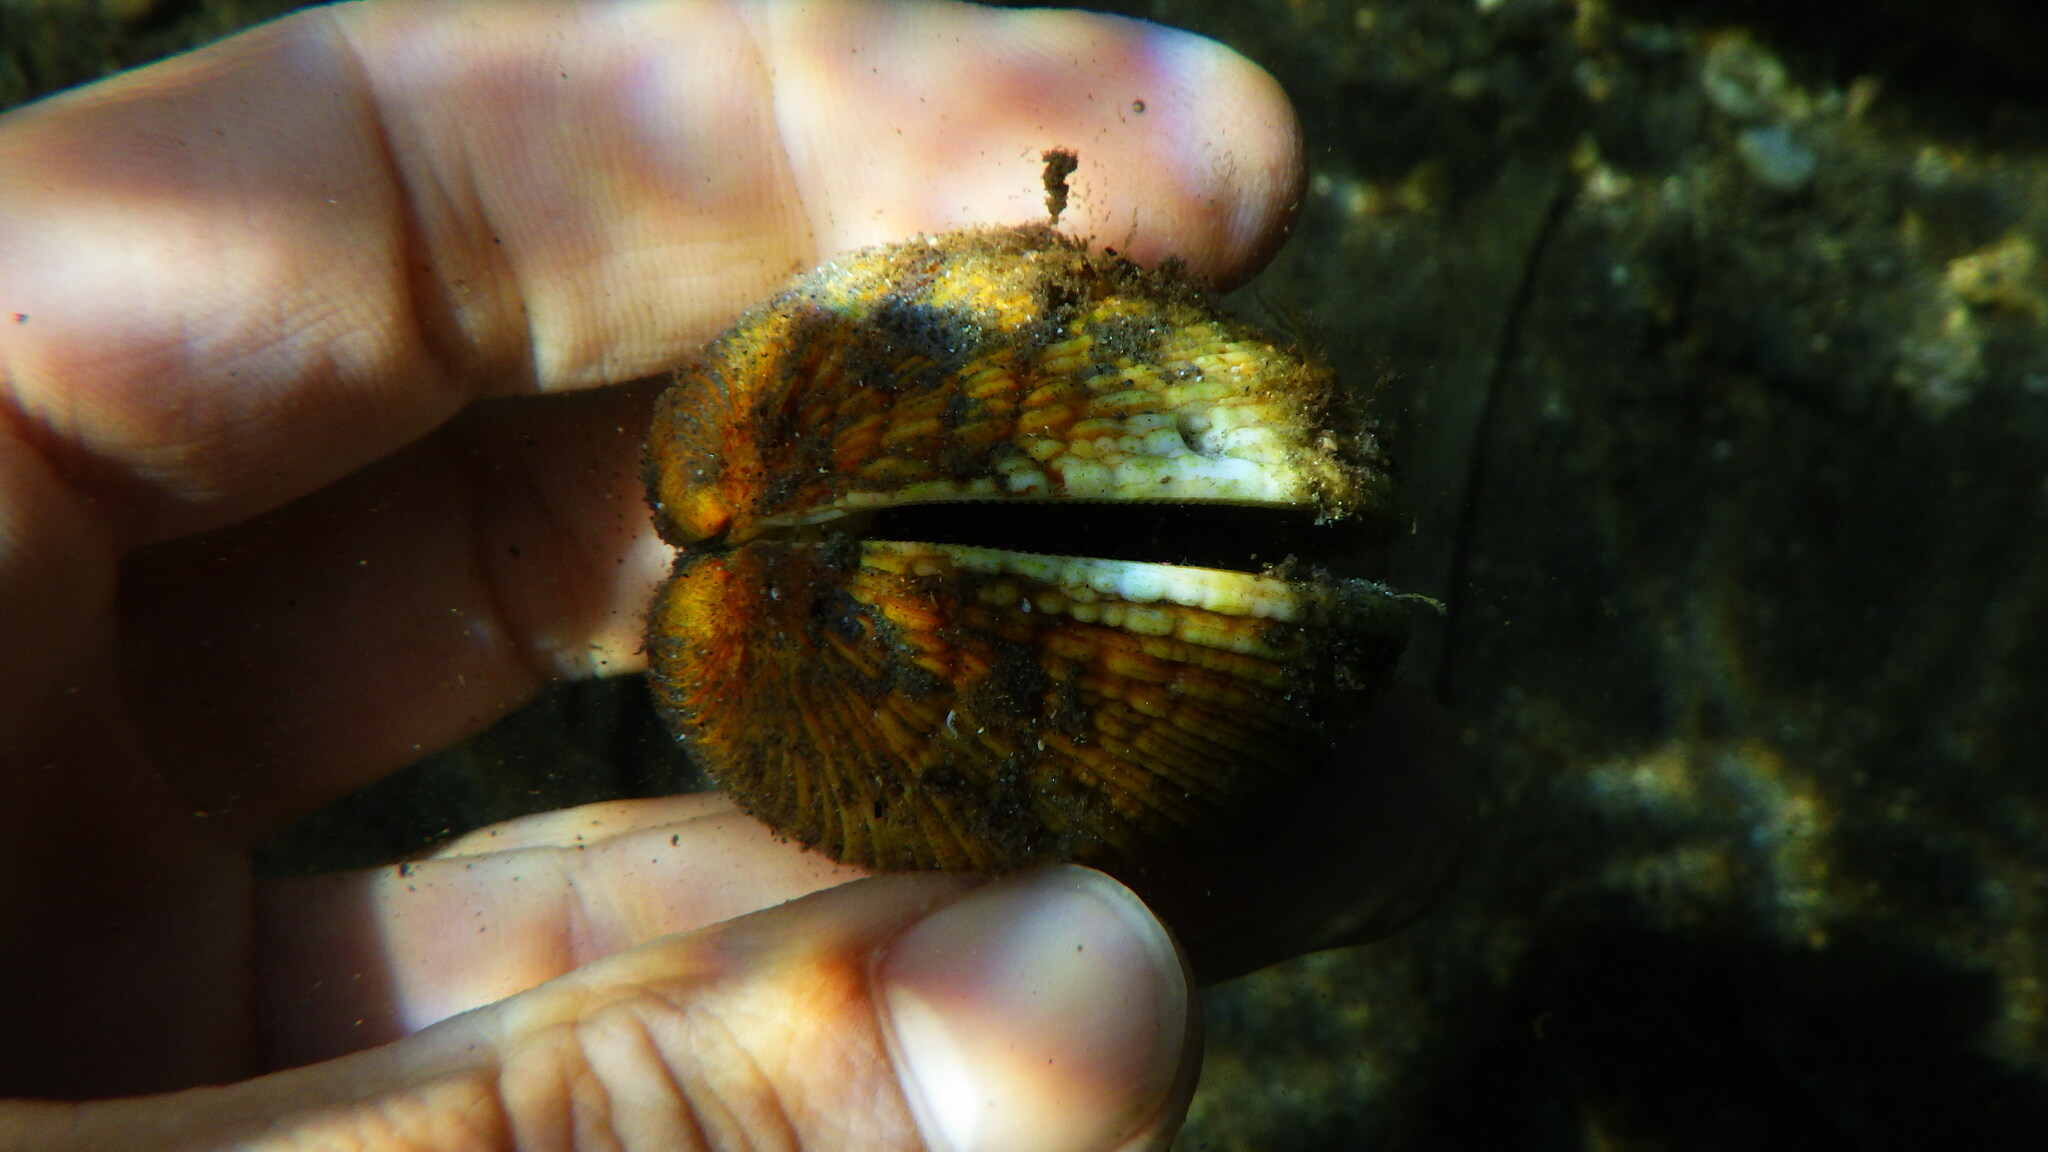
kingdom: Animalia
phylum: Mollusca
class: Bivalvia
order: Venerida
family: Veneridae
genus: Venus
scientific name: Venus verrucosa
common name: Warty venus
